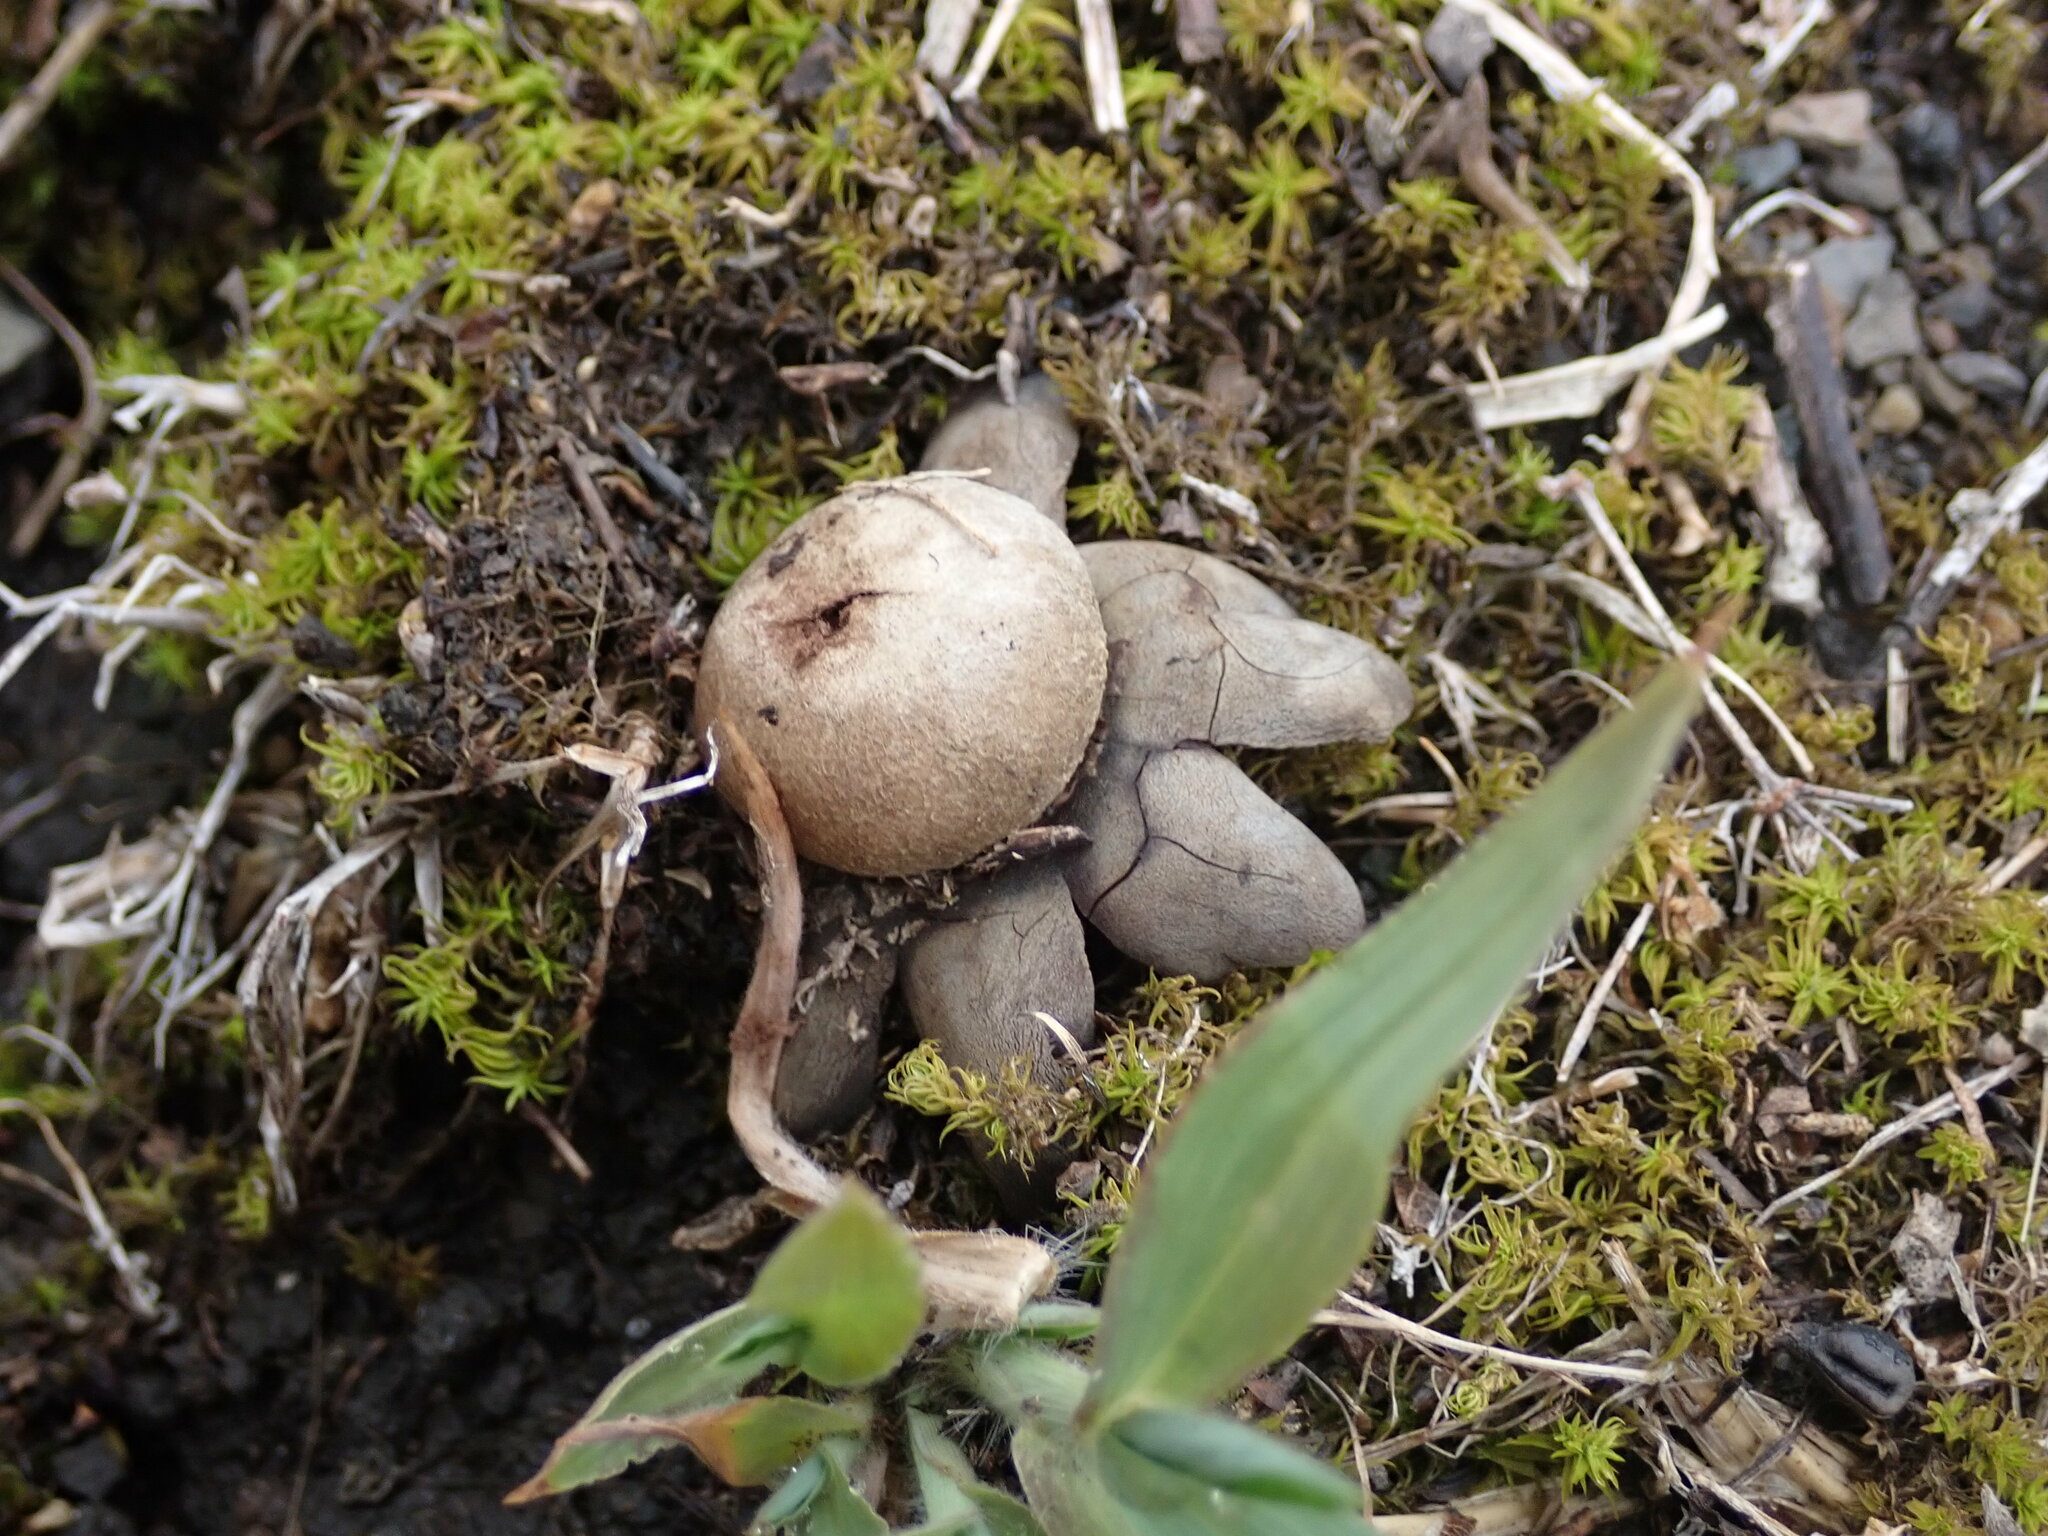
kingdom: Fungi
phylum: Basidiomycota
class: Agaricomycetes
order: Boletales
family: Diplocystidiaceae
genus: Astraeus
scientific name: Astraeus hygrometricus
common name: Barometer earthstar
